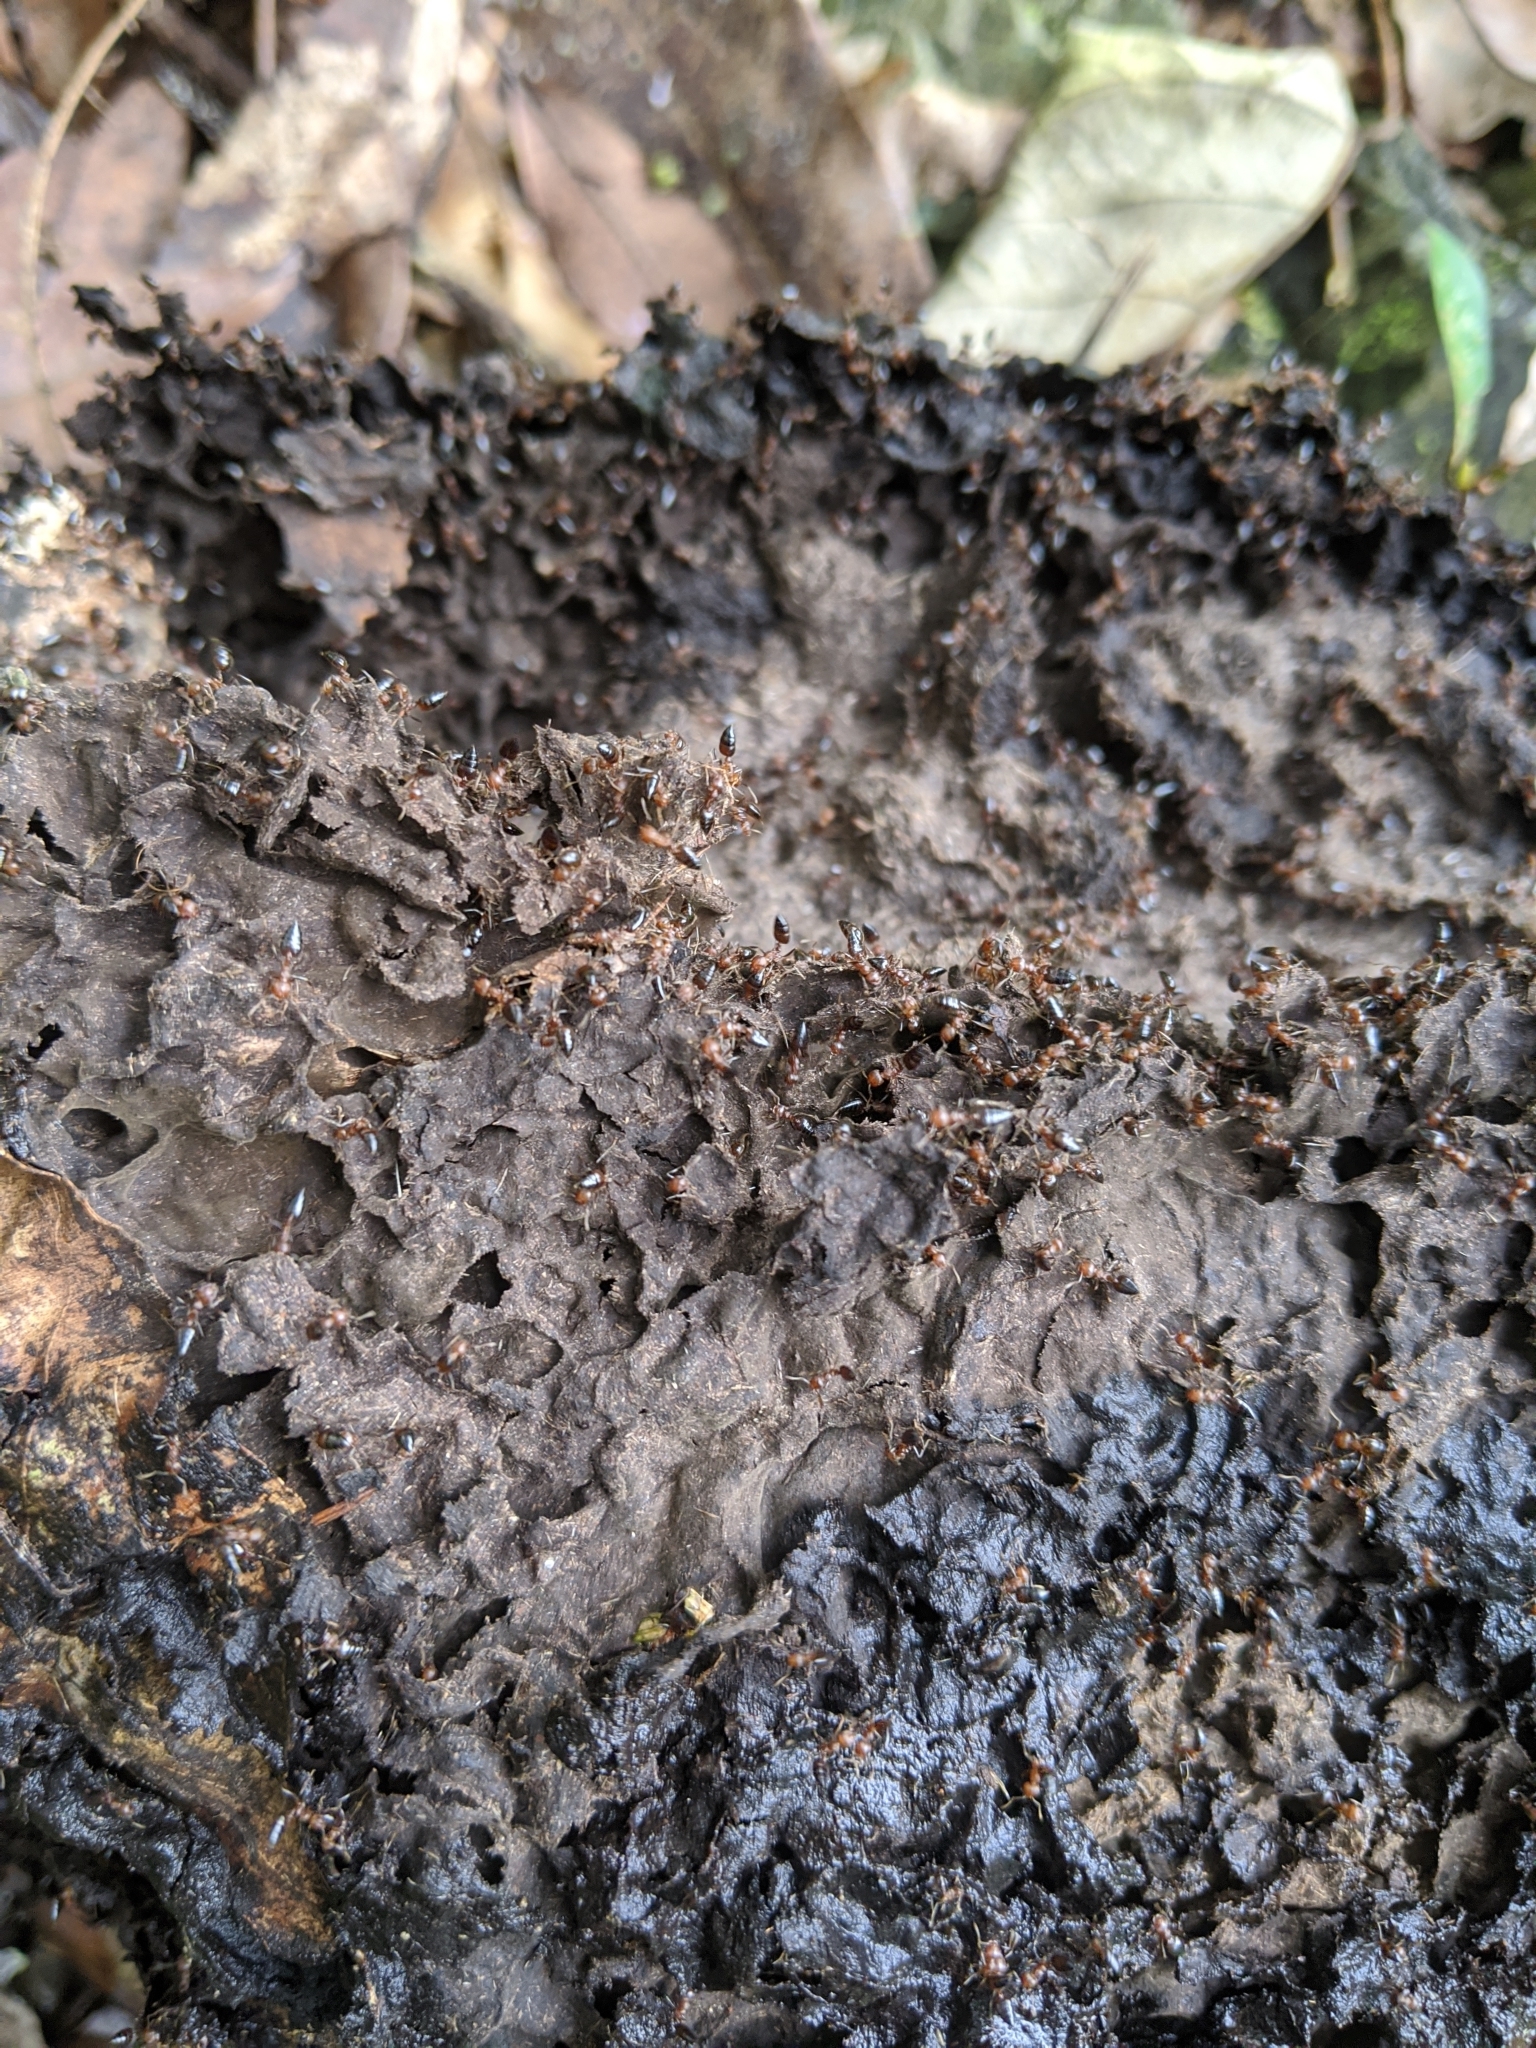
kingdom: Animalia
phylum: Arthropoda
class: Insecta
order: Hymenoptera
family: Formicidae
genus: Crematogaster
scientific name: Crematogaster pia
